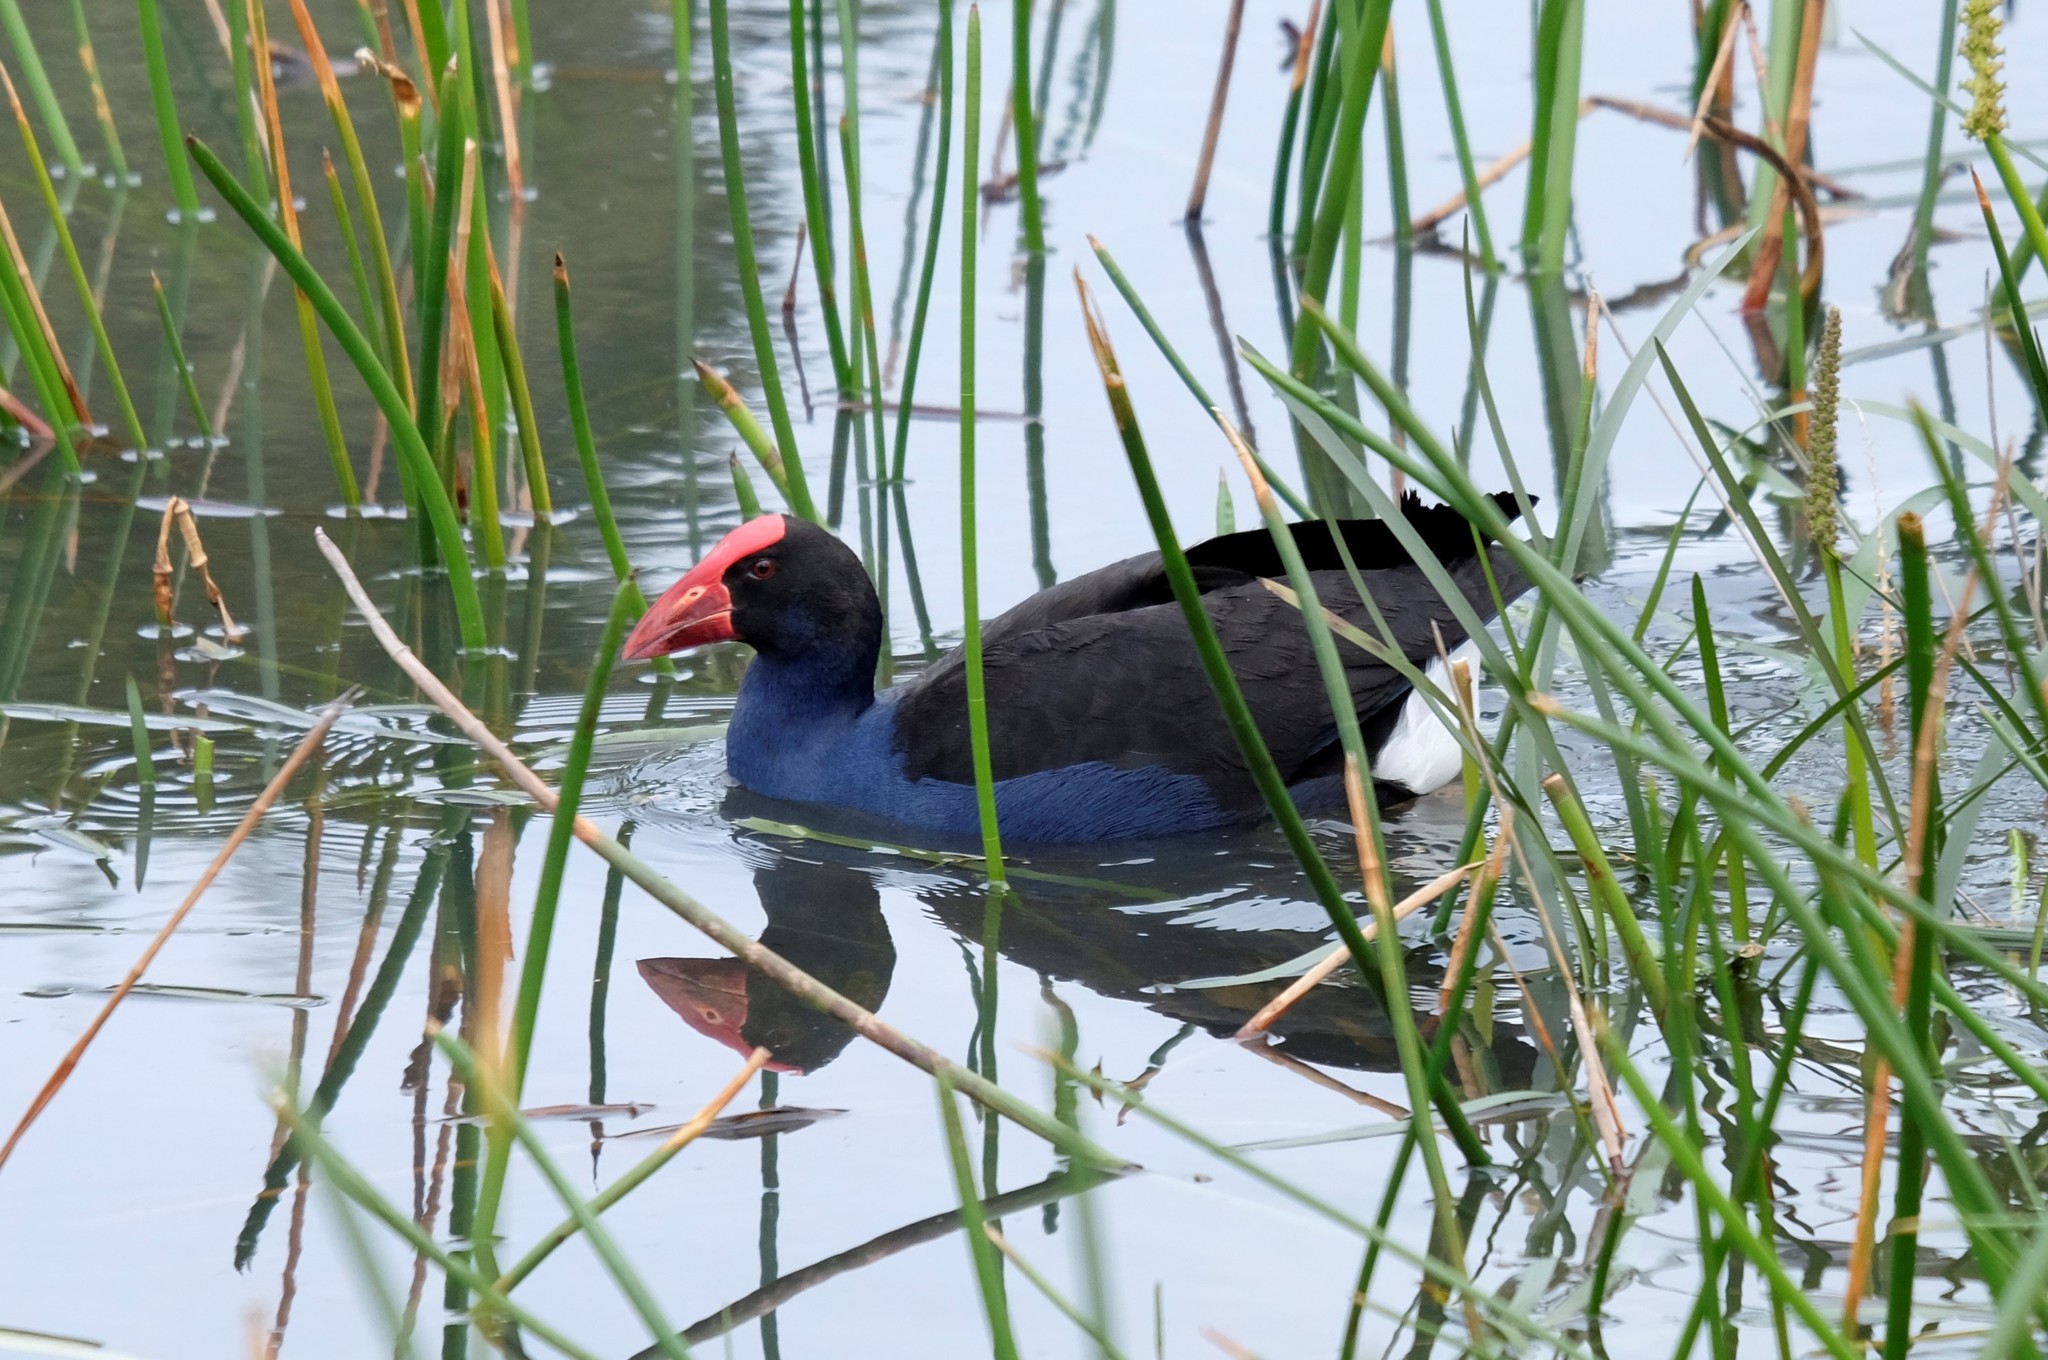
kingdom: Animalia
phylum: Chordata
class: Aves
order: Gruiformes
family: Rallidae
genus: Porphyrio
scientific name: Porphyrio melanotus
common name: Australasian swamphen
